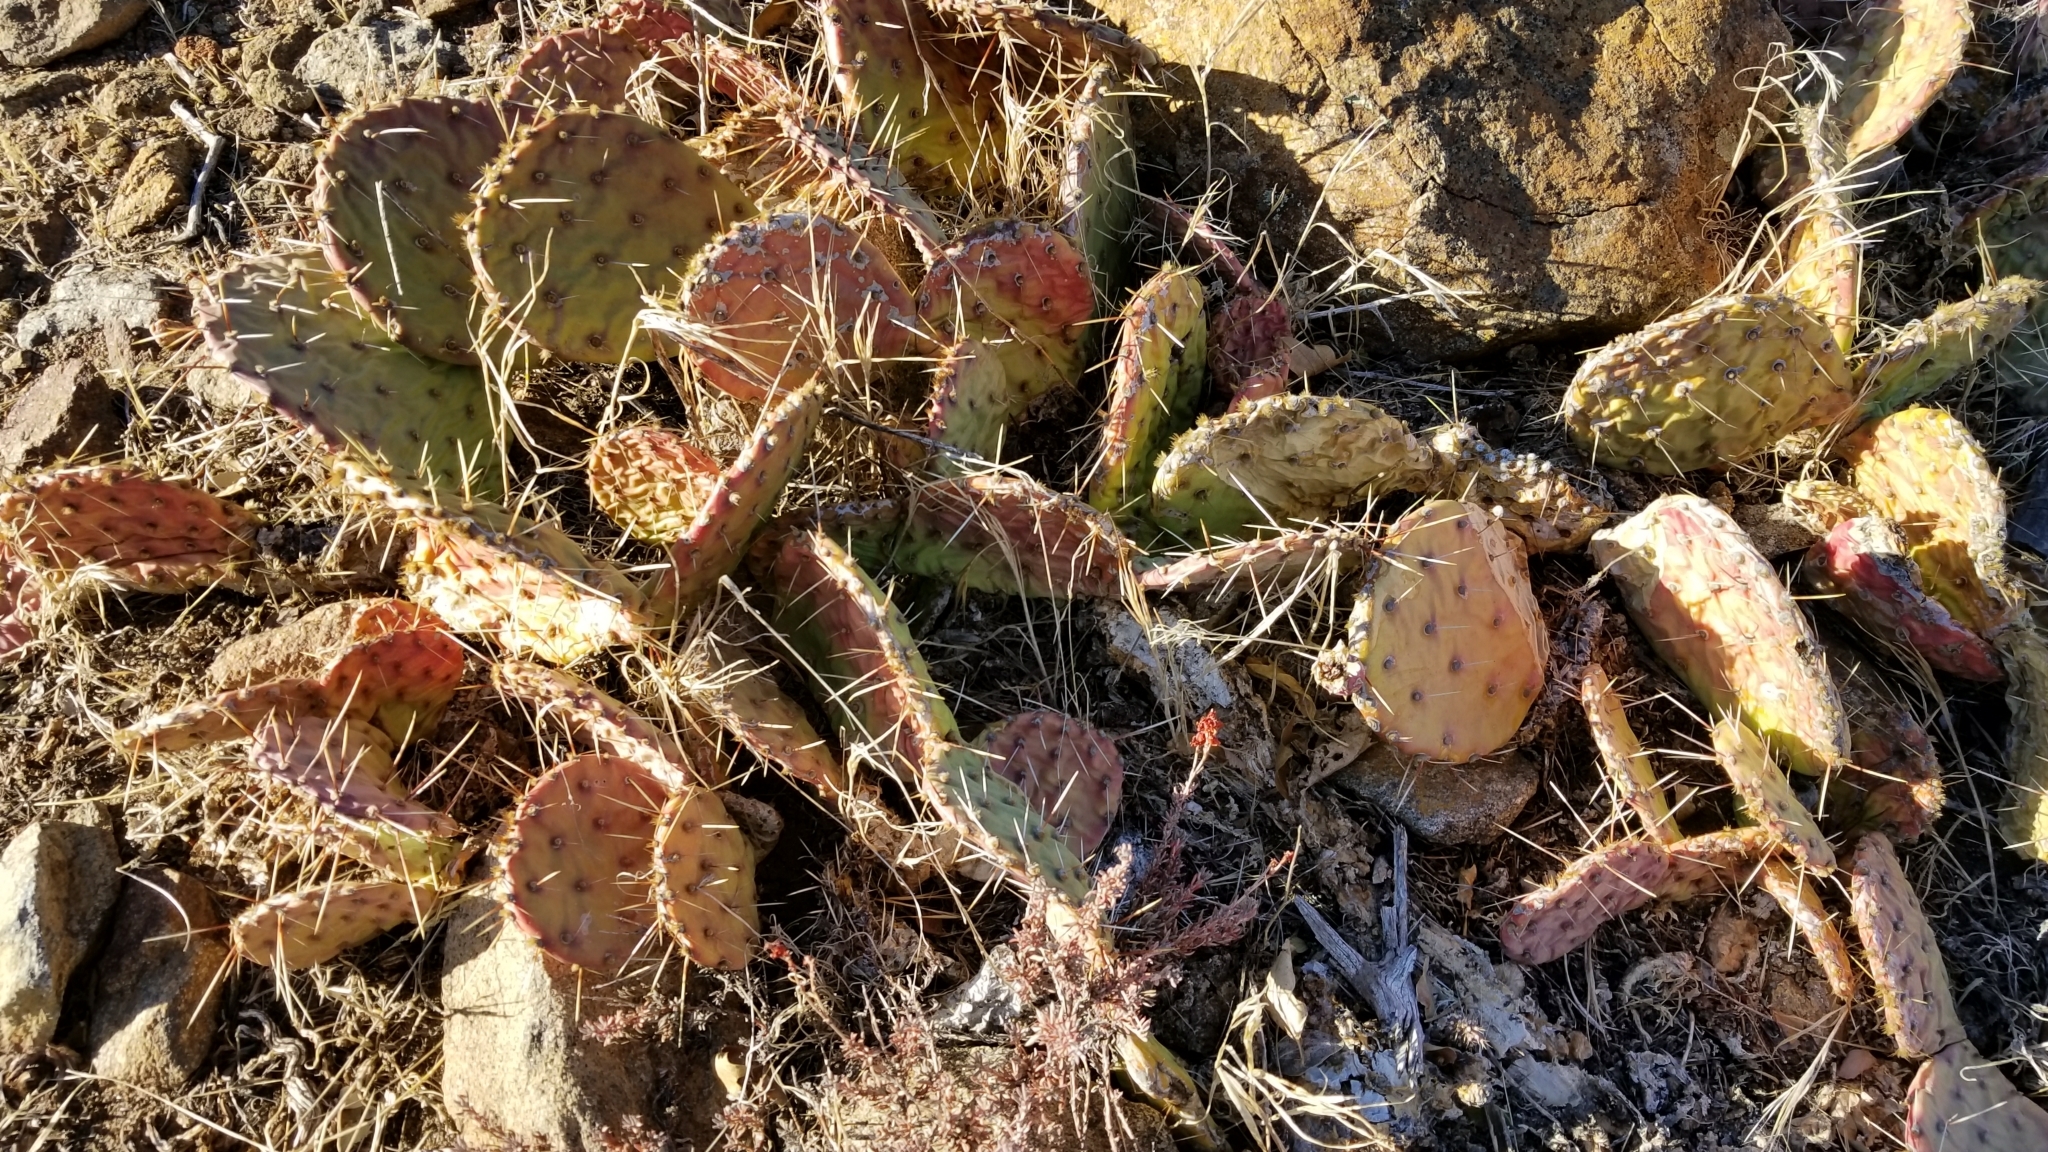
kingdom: Plantae
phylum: Tracheophyta
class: Magnoliopsida
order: Caryophyllales
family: Cactaceae
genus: Opuntia
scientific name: Opuntia phaeacantha
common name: New mexico prickly-pear
